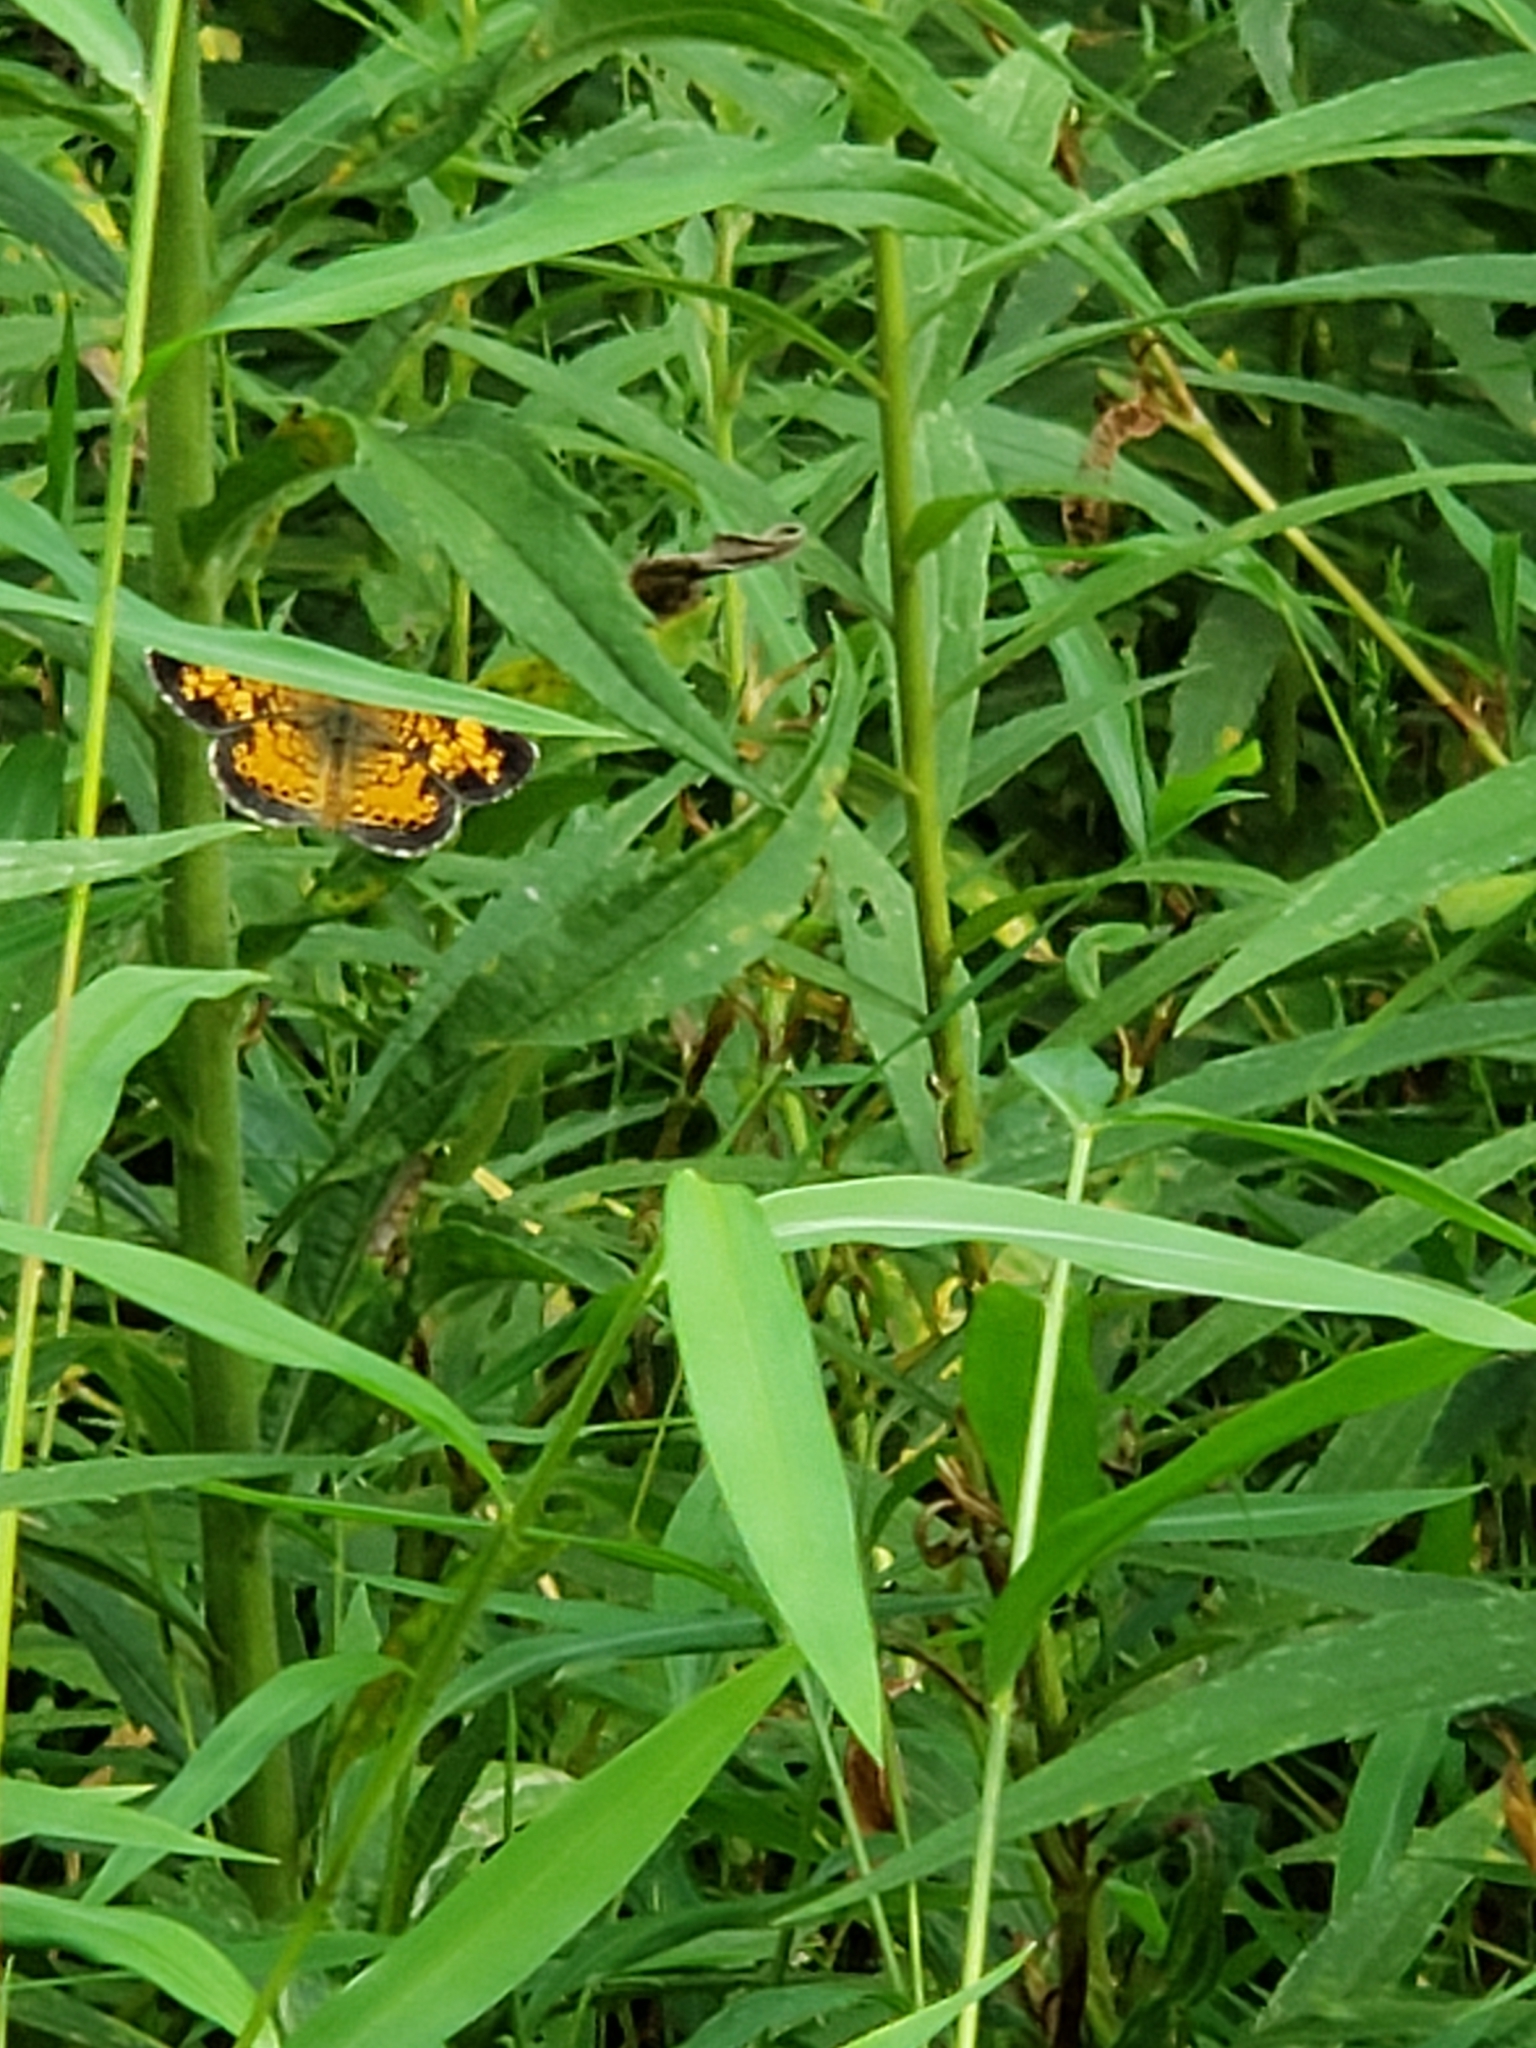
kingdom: Animalia
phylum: Arthropoda
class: Insecta
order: Lepidoptera
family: Nymphalidae
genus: Phyciodes
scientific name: Phyciodes tharos
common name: Pearl crescent
